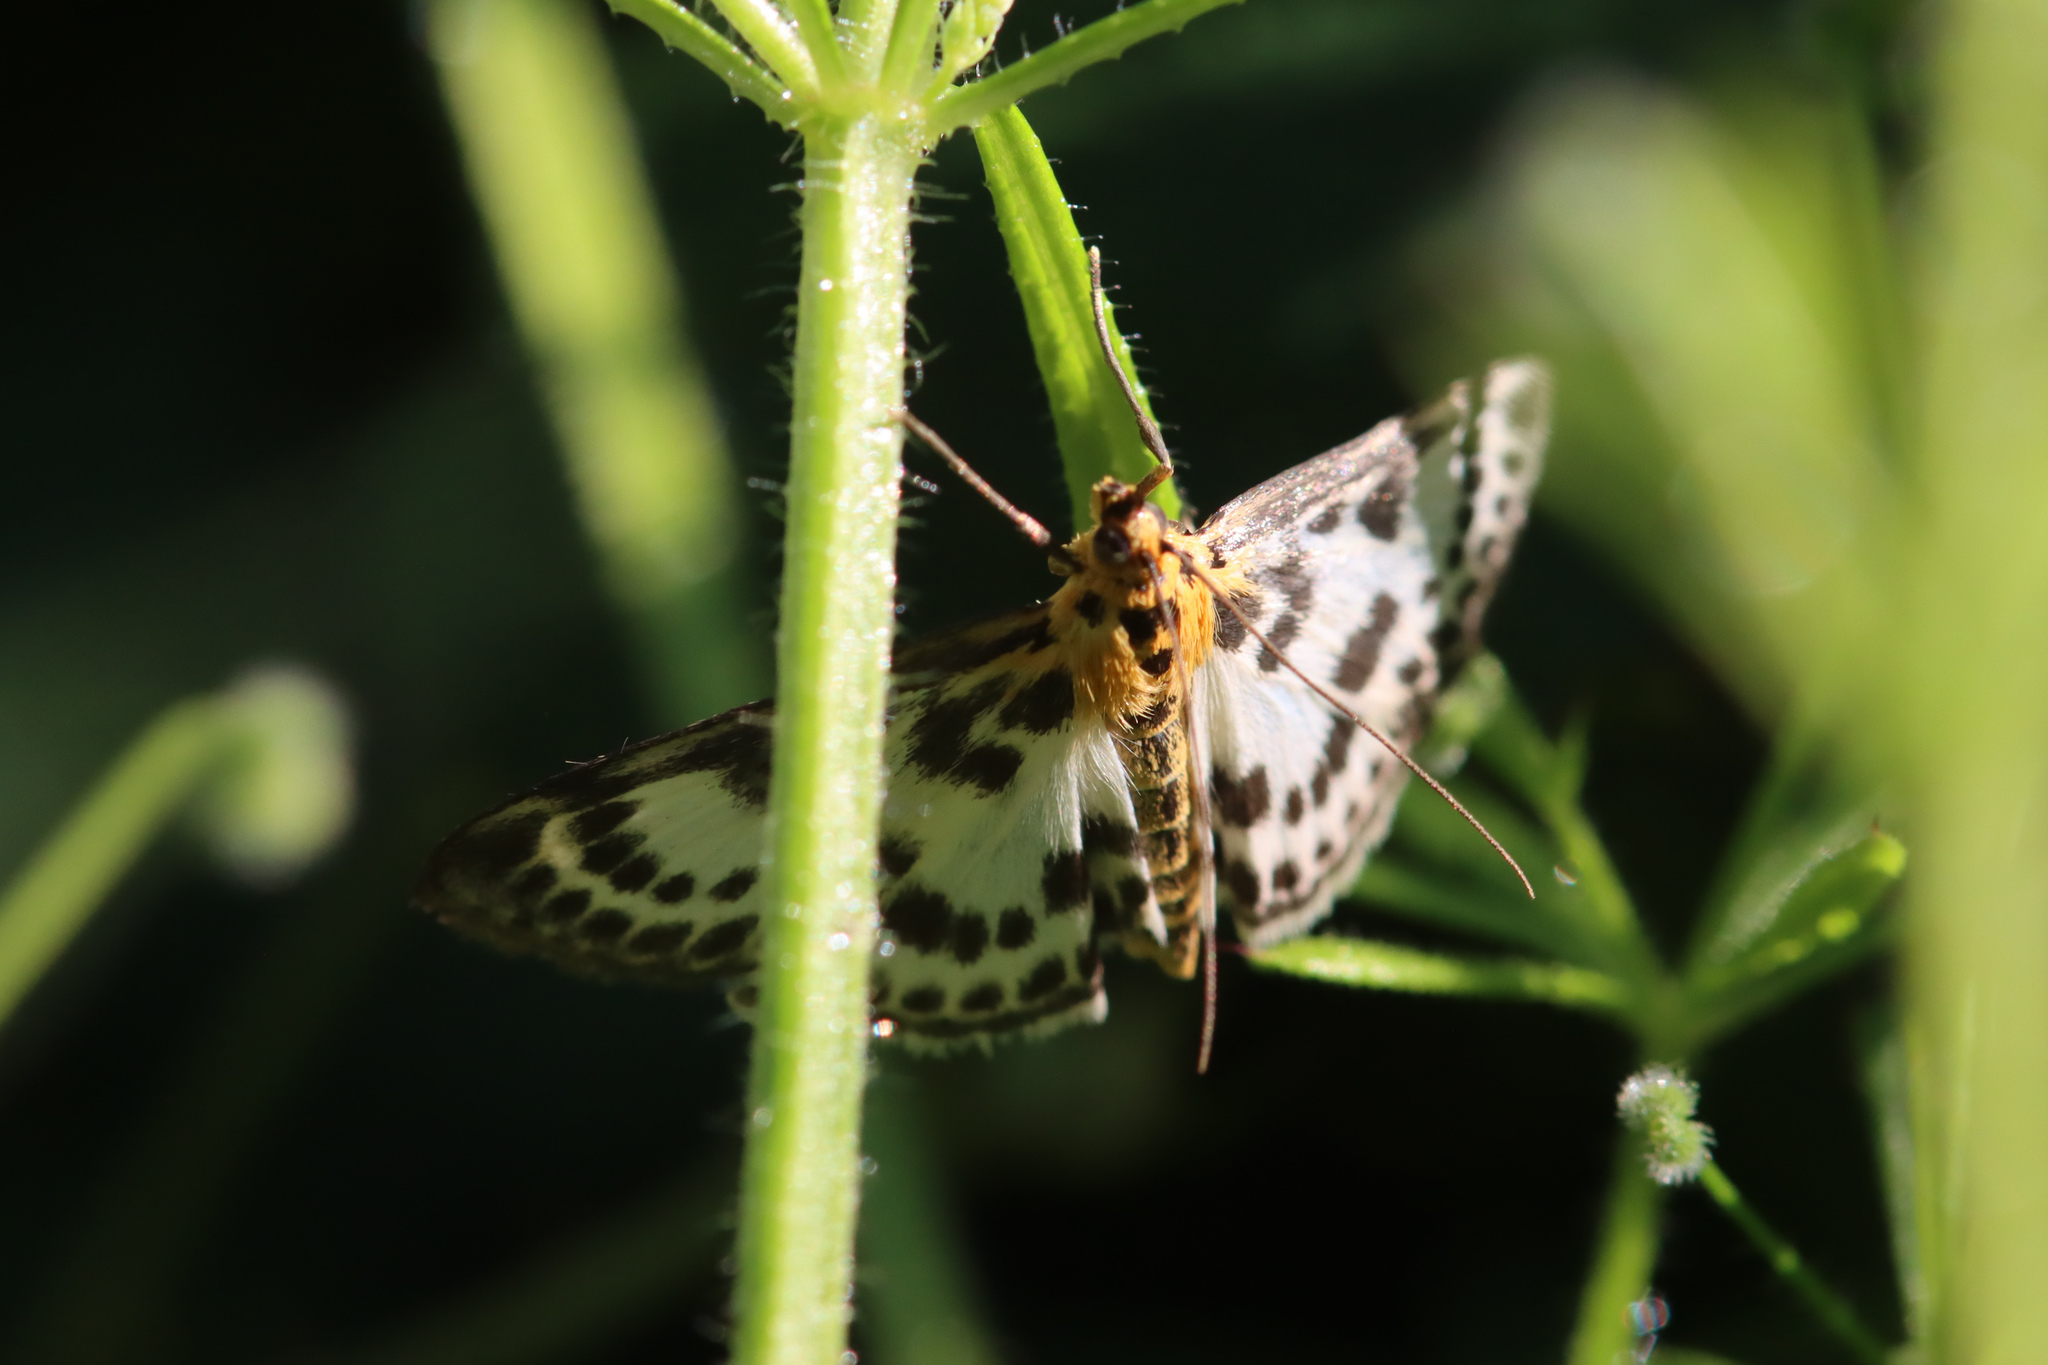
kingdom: Animalia
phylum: Arthropoda
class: Insecta
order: Lepidoptera
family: Crambidae
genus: Anania
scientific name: Anania hortulata
